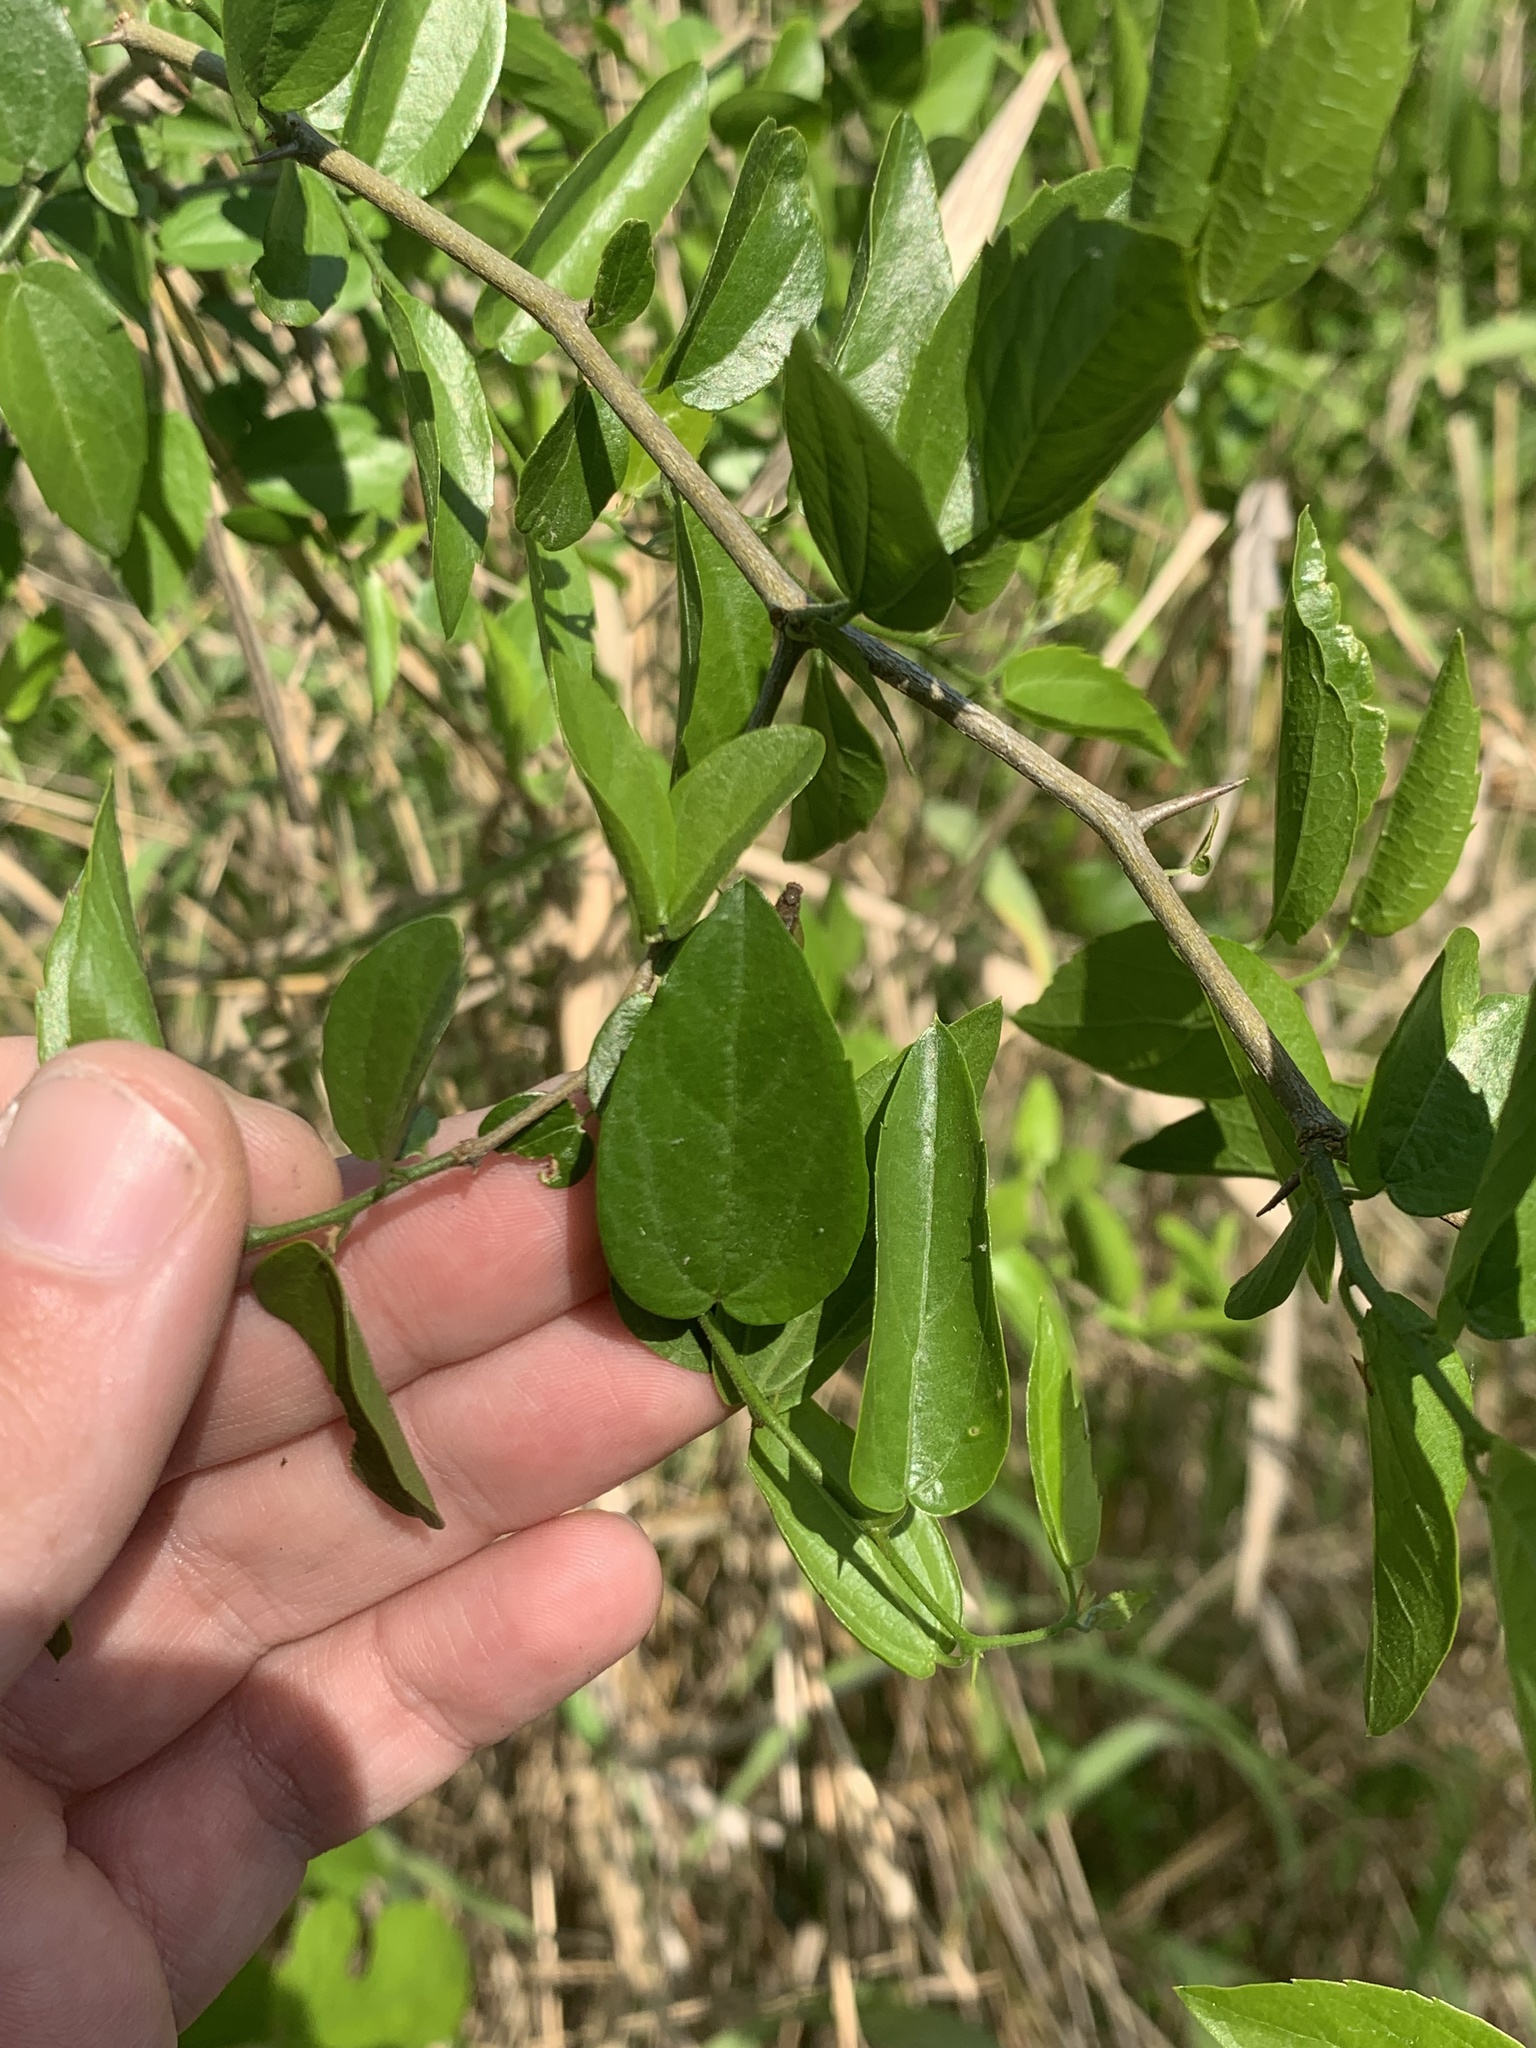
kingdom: Plantae
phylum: Tracheophyta
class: Magnoliopsida
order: Rosales
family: Cannabaceae
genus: Celtis
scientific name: Celtis tala
